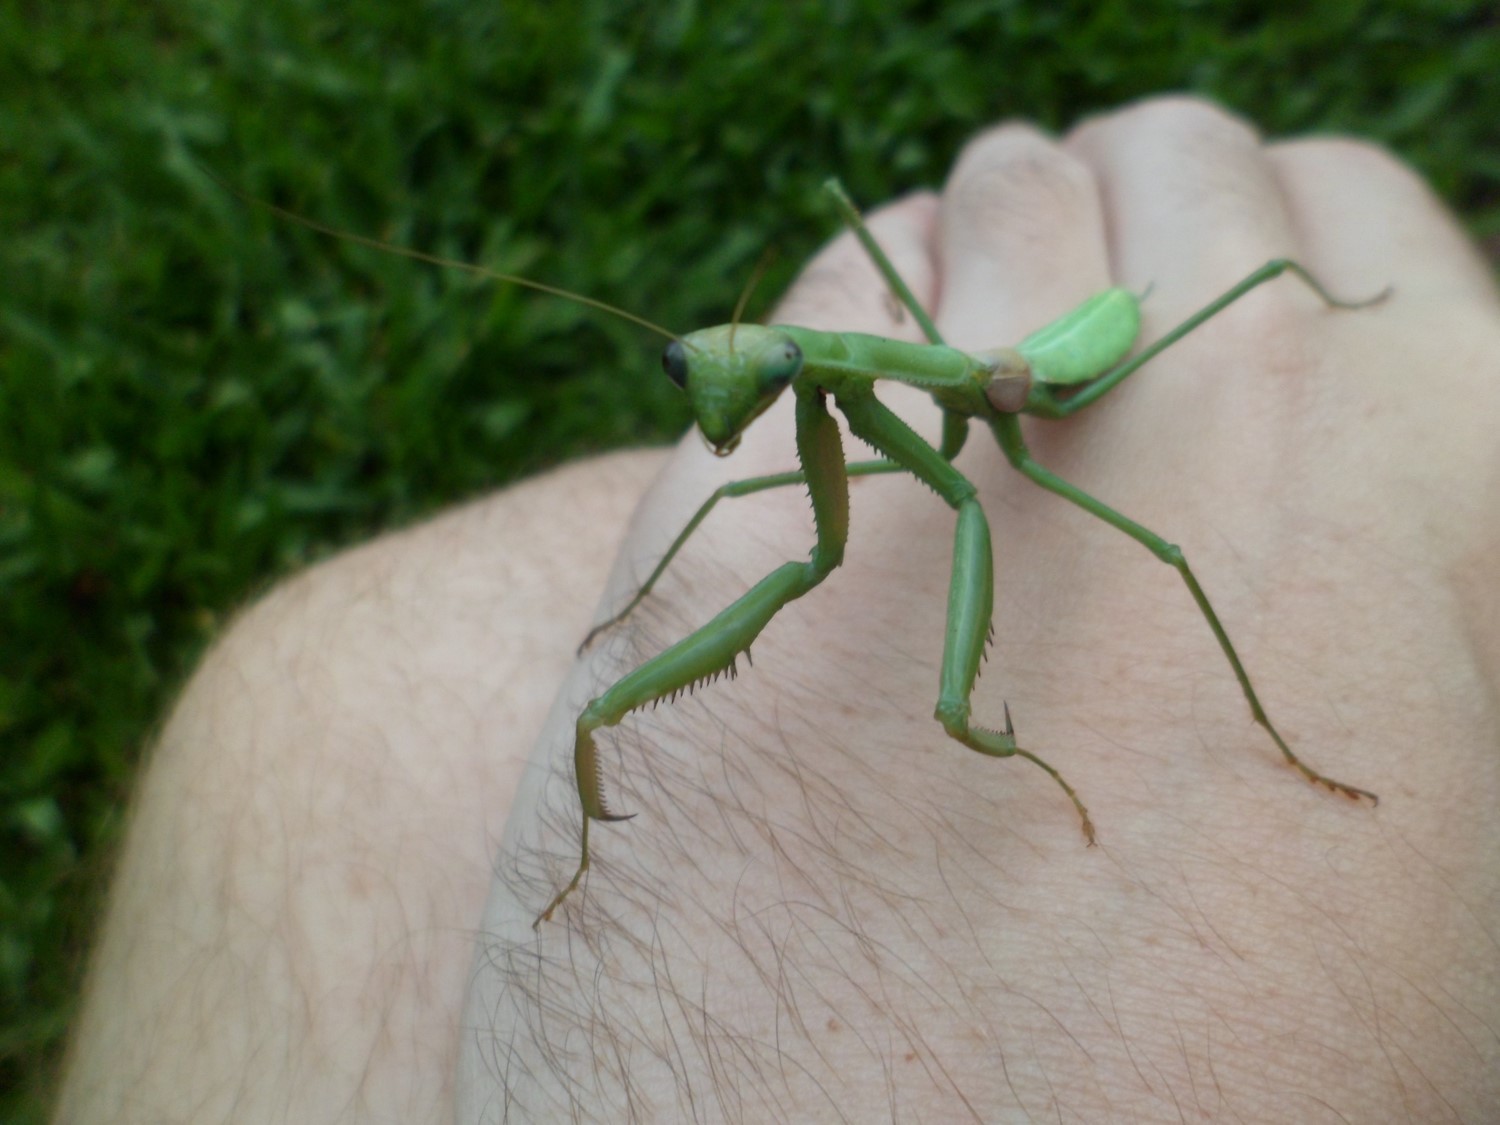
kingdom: Animalia
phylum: Arthropoda
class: Insecta
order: Mantodea
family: Coptopterygidae
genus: Coptopteryx
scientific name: Coptopteryx
